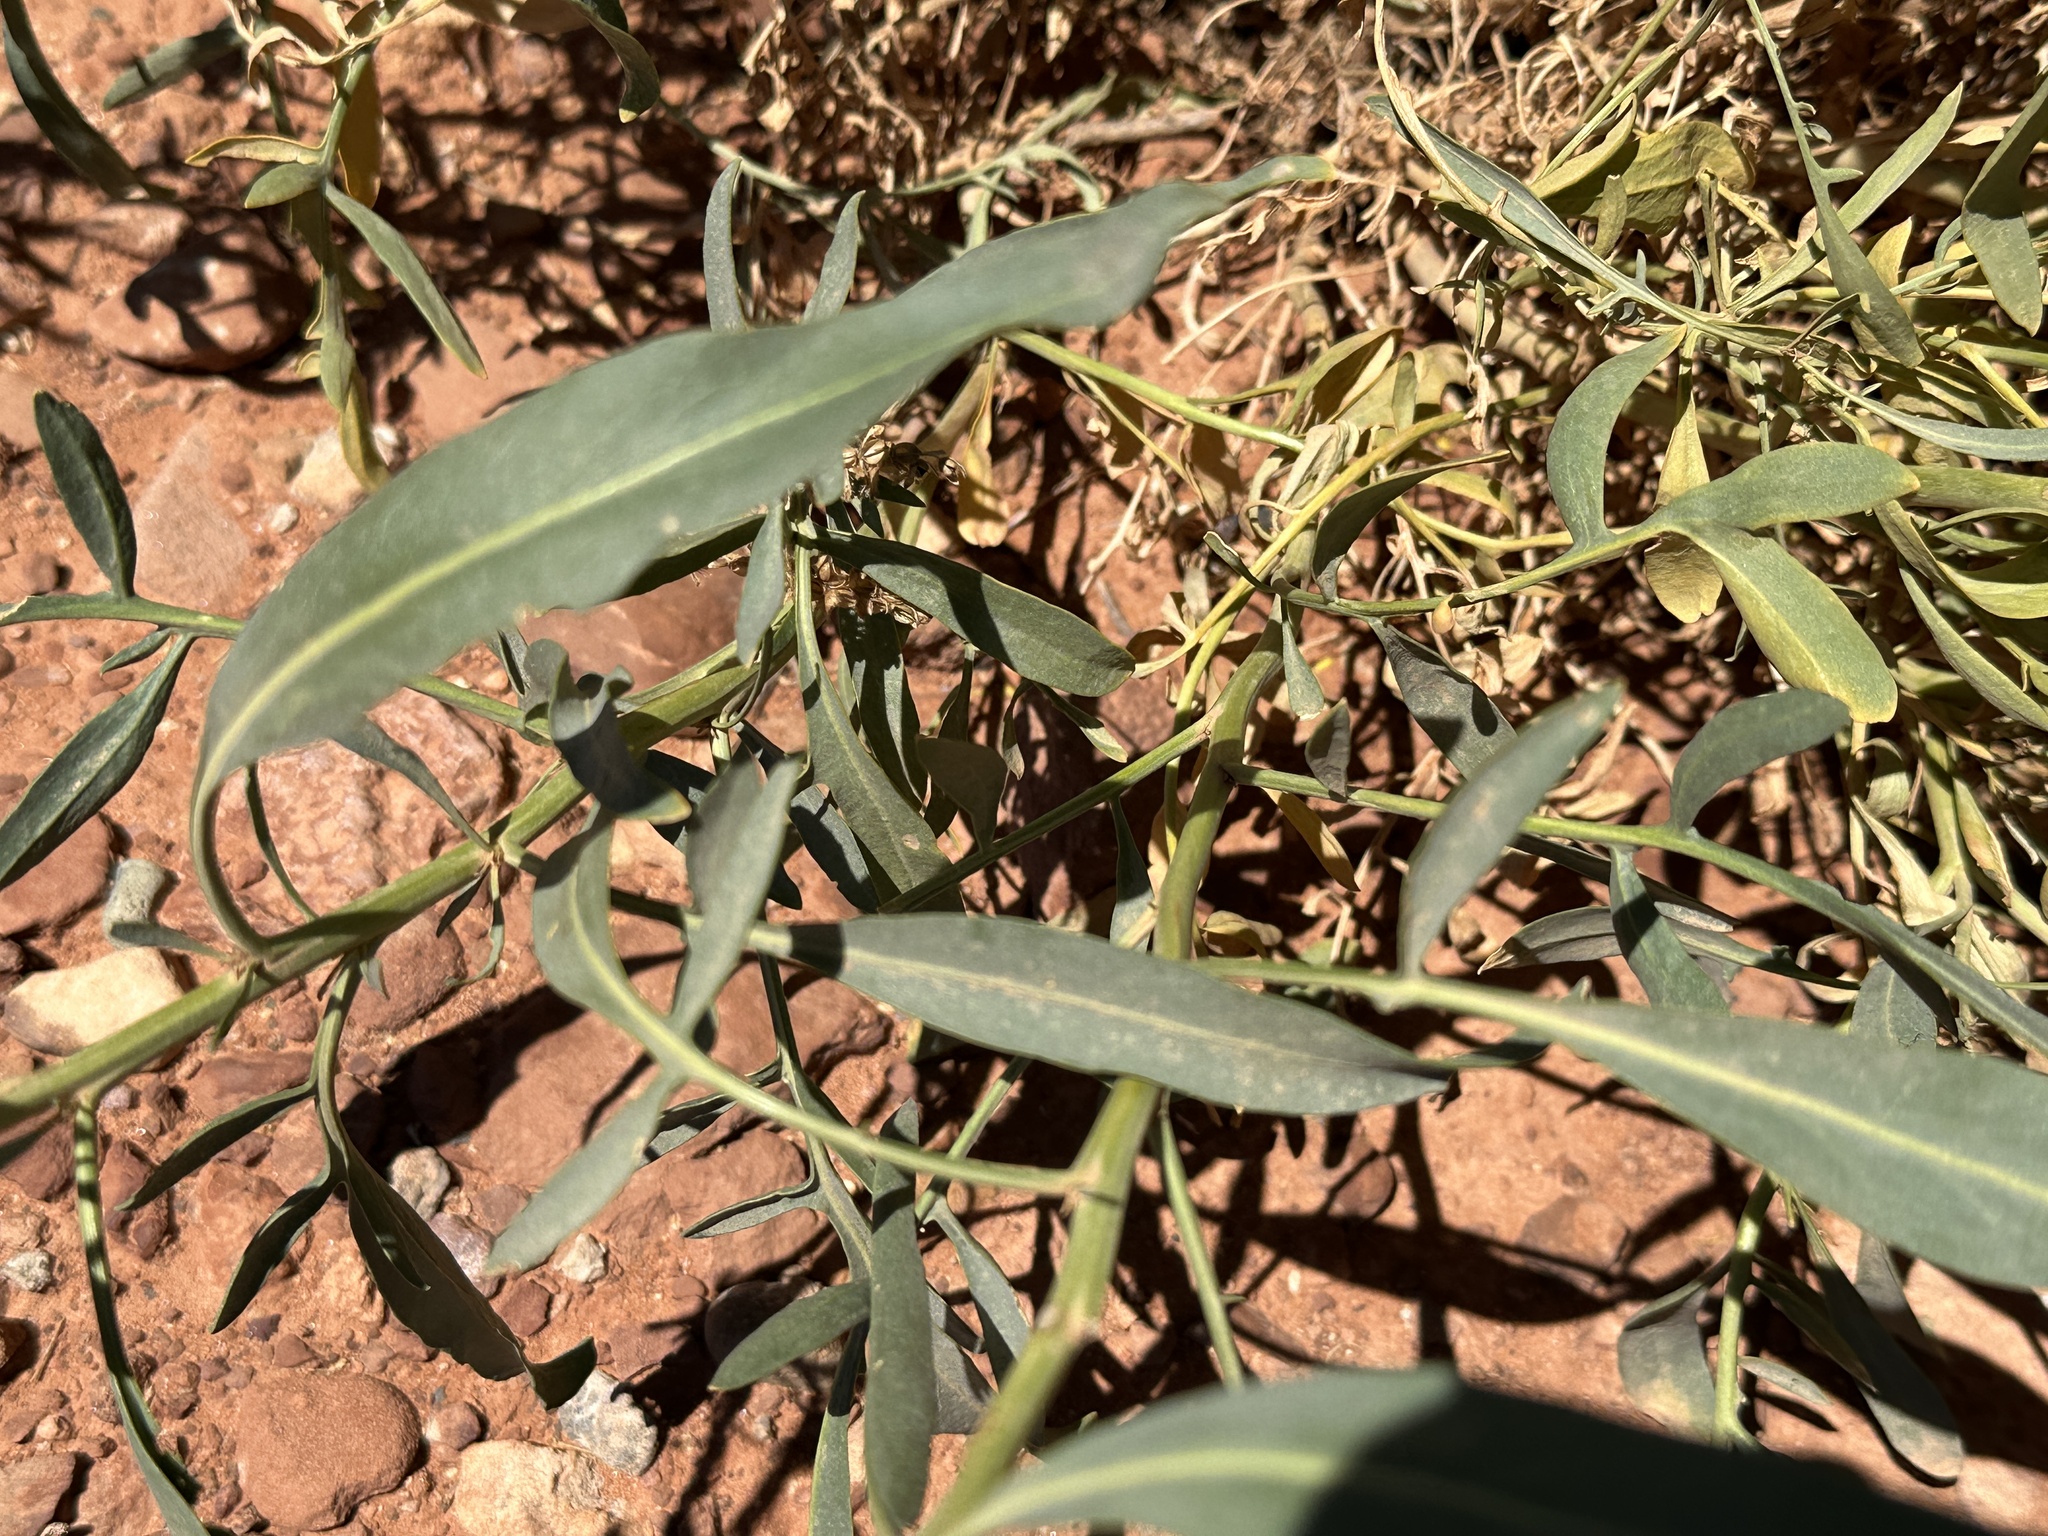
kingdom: Plantae
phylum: Tracheophyta
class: Magnoliopsida
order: Brassicales
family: Brassicaceae
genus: Stanleya
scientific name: Stanleya pinnata
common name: Prince's-plume
